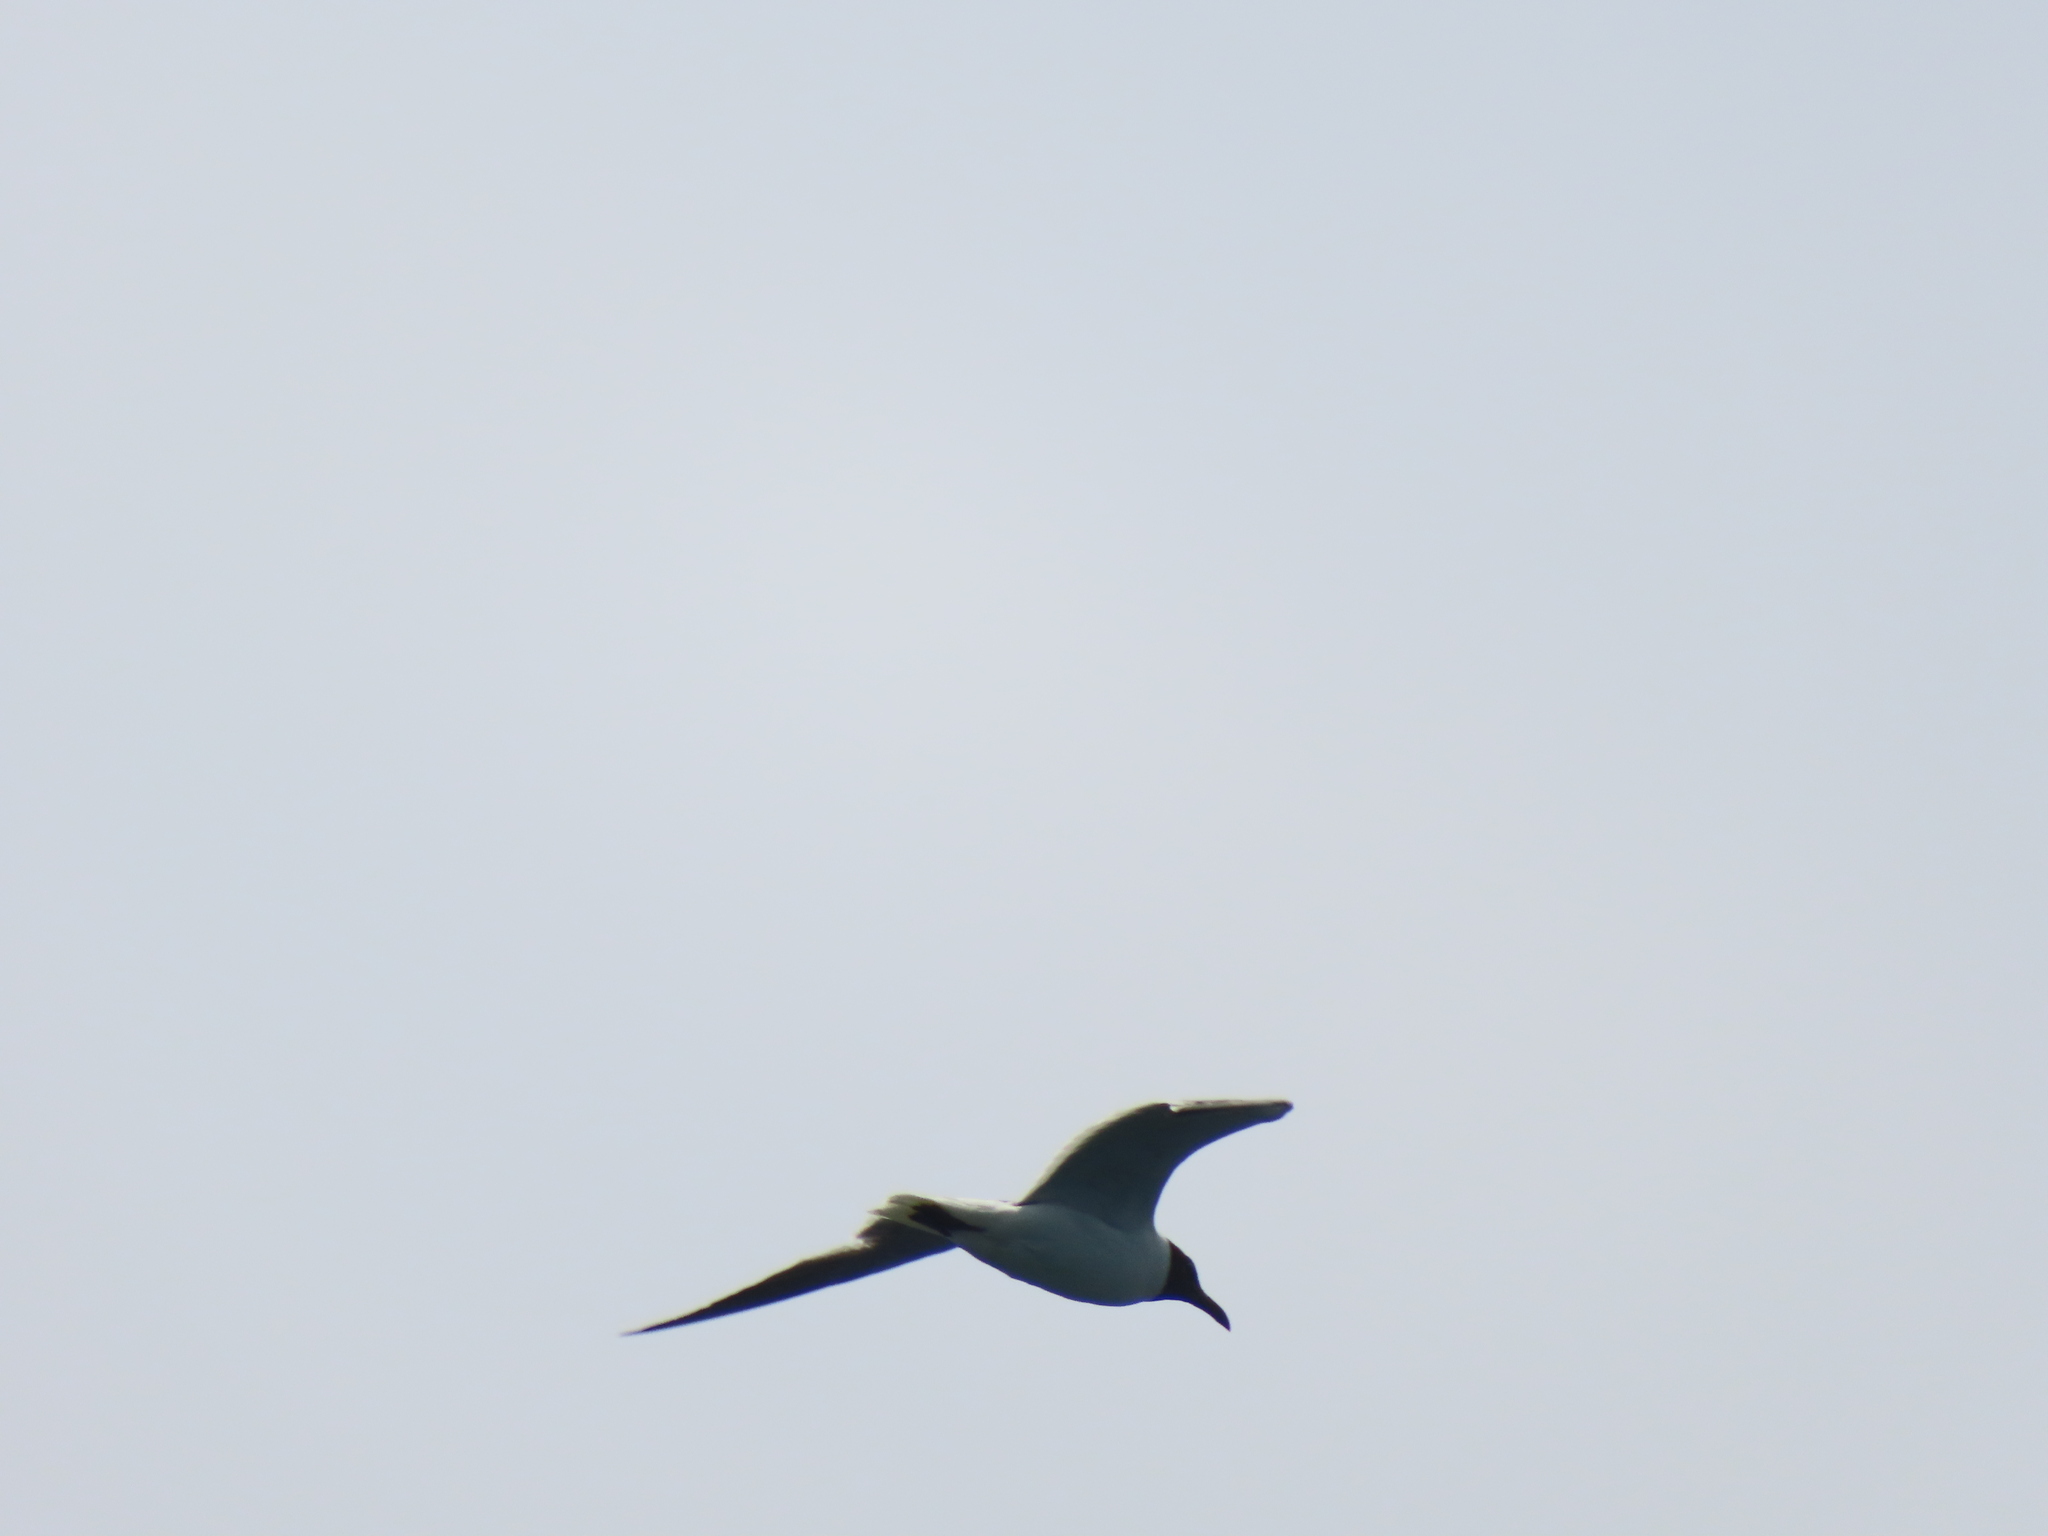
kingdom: Animalia
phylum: Chordata
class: Aves
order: Charadriiformes
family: Laridae
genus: Leucophaeus
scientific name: Leucophaeus atricilla
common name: Laughing gull
